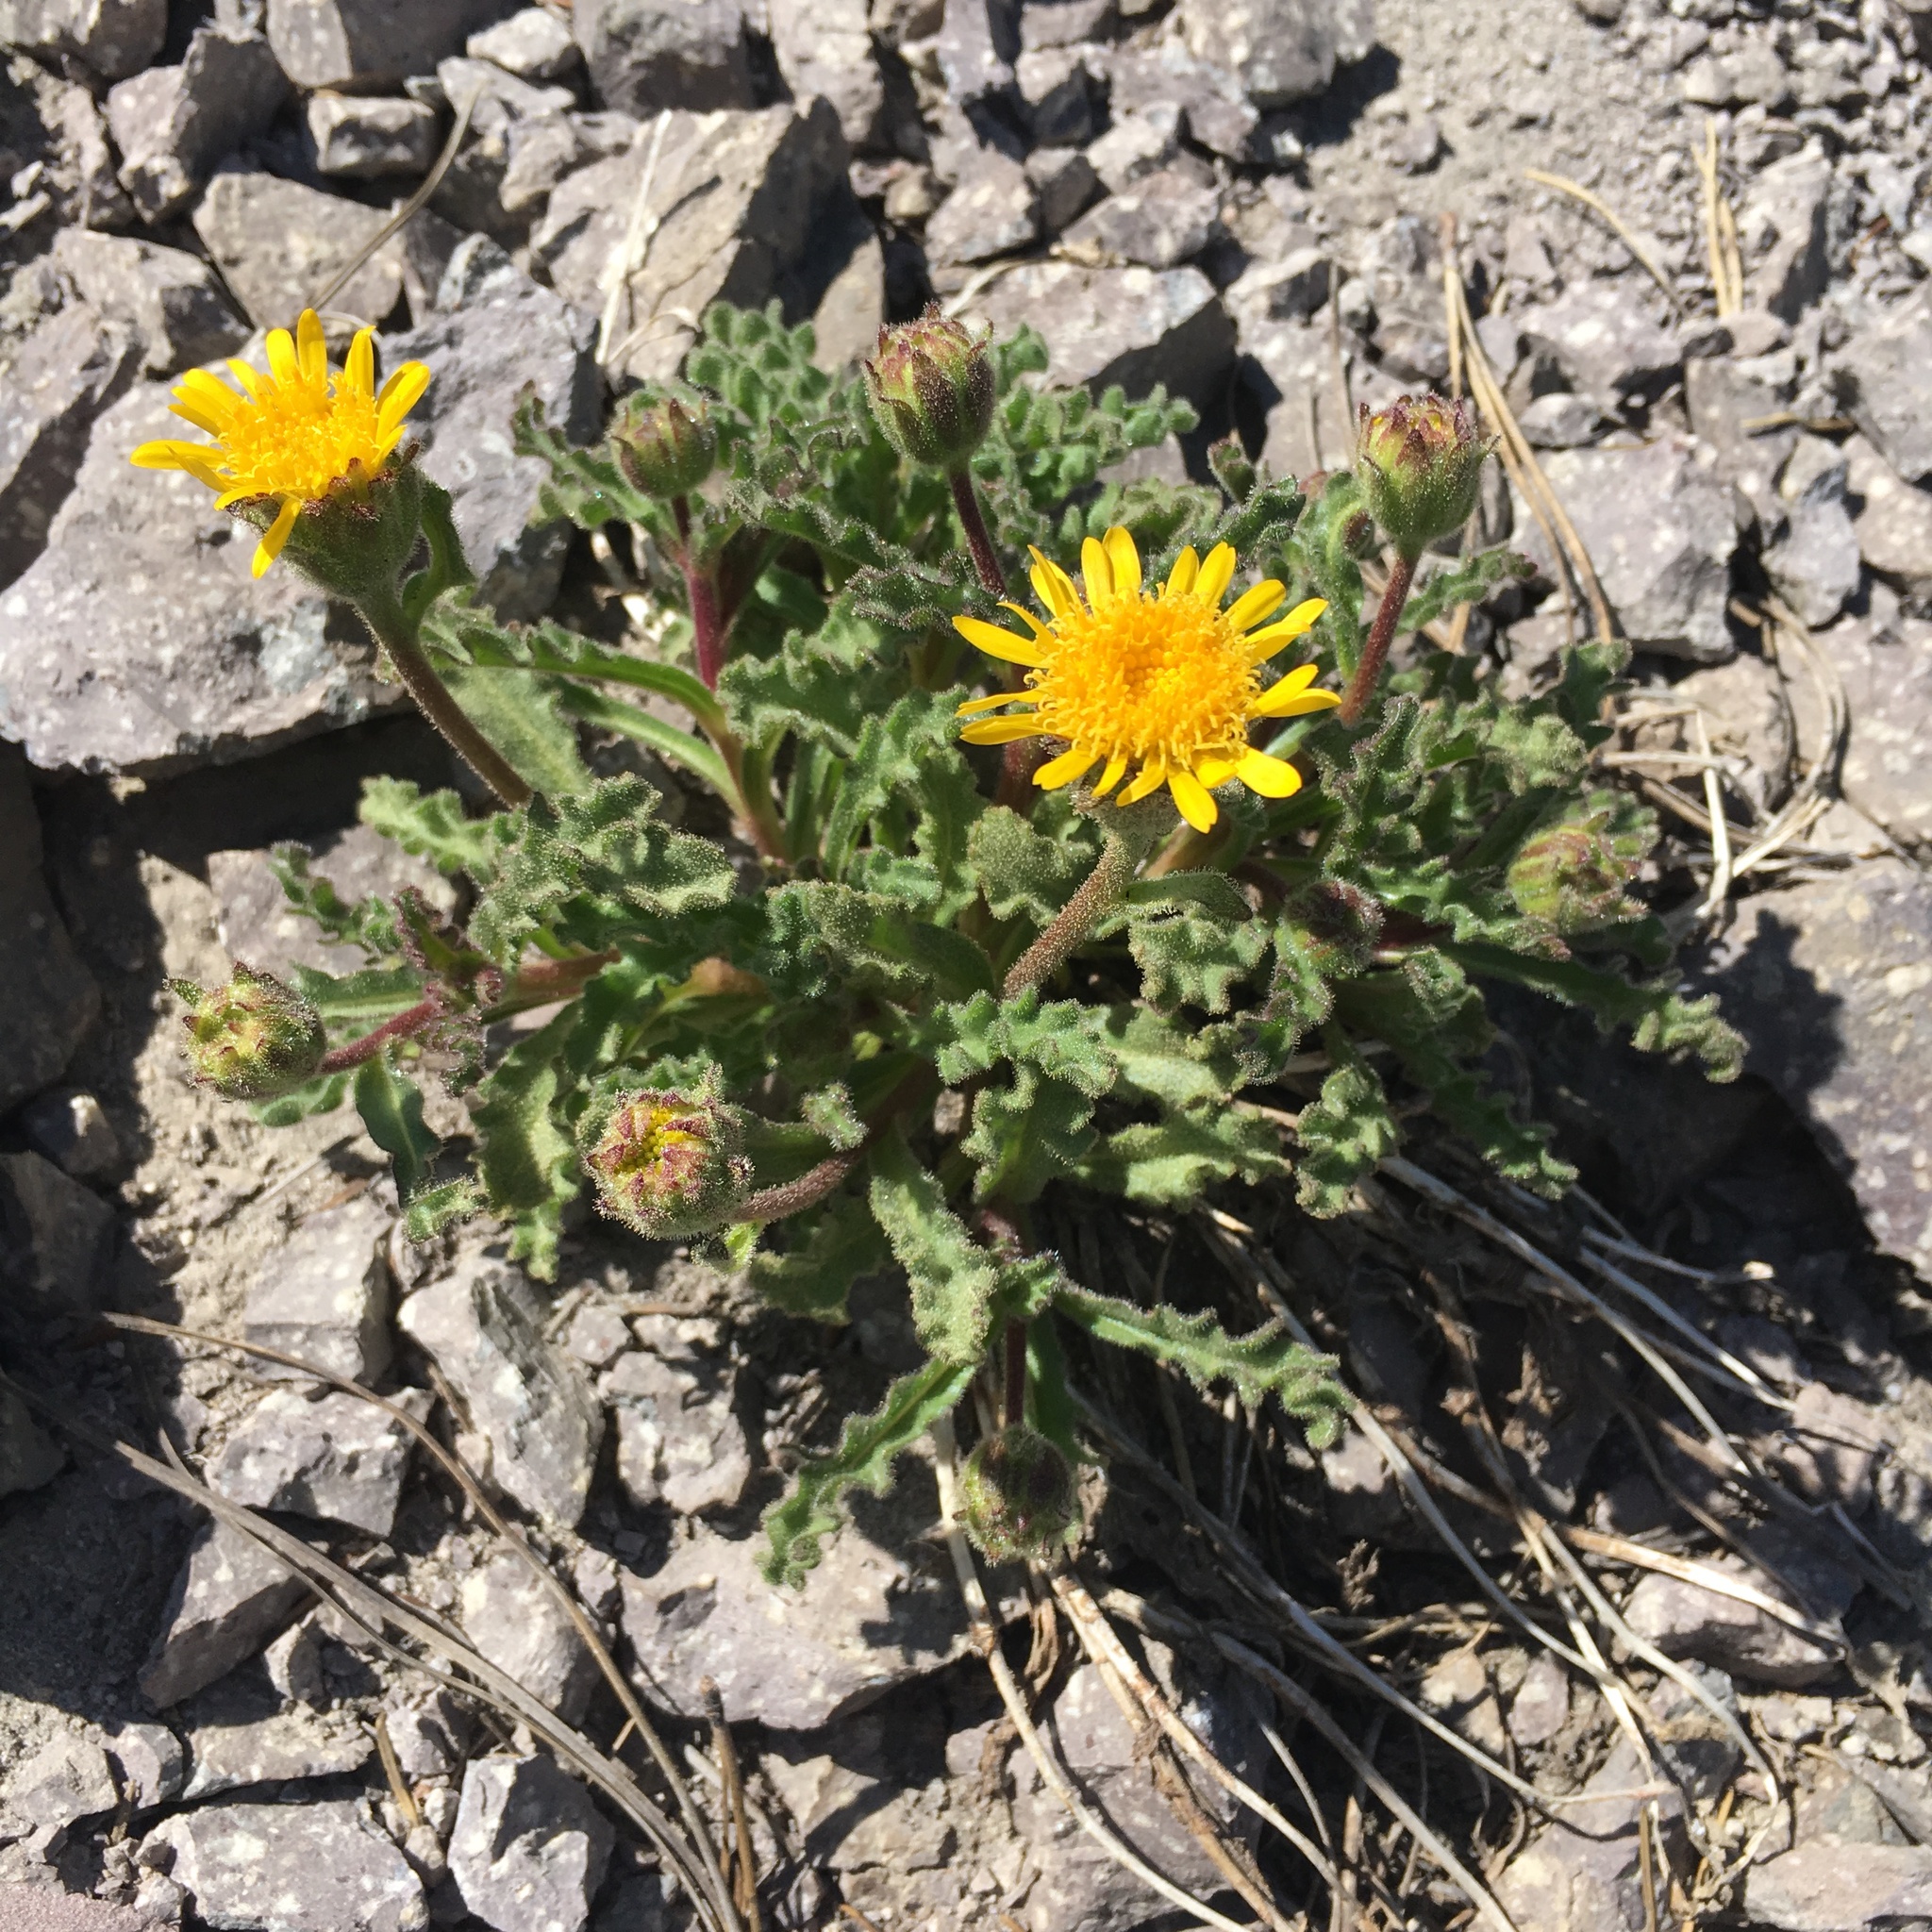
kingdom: Plantae
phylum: Tracheophyta
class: Magnoliopsida
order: Asterales
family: Asteraceae
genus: Hulsea
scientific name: Hulsea nana
